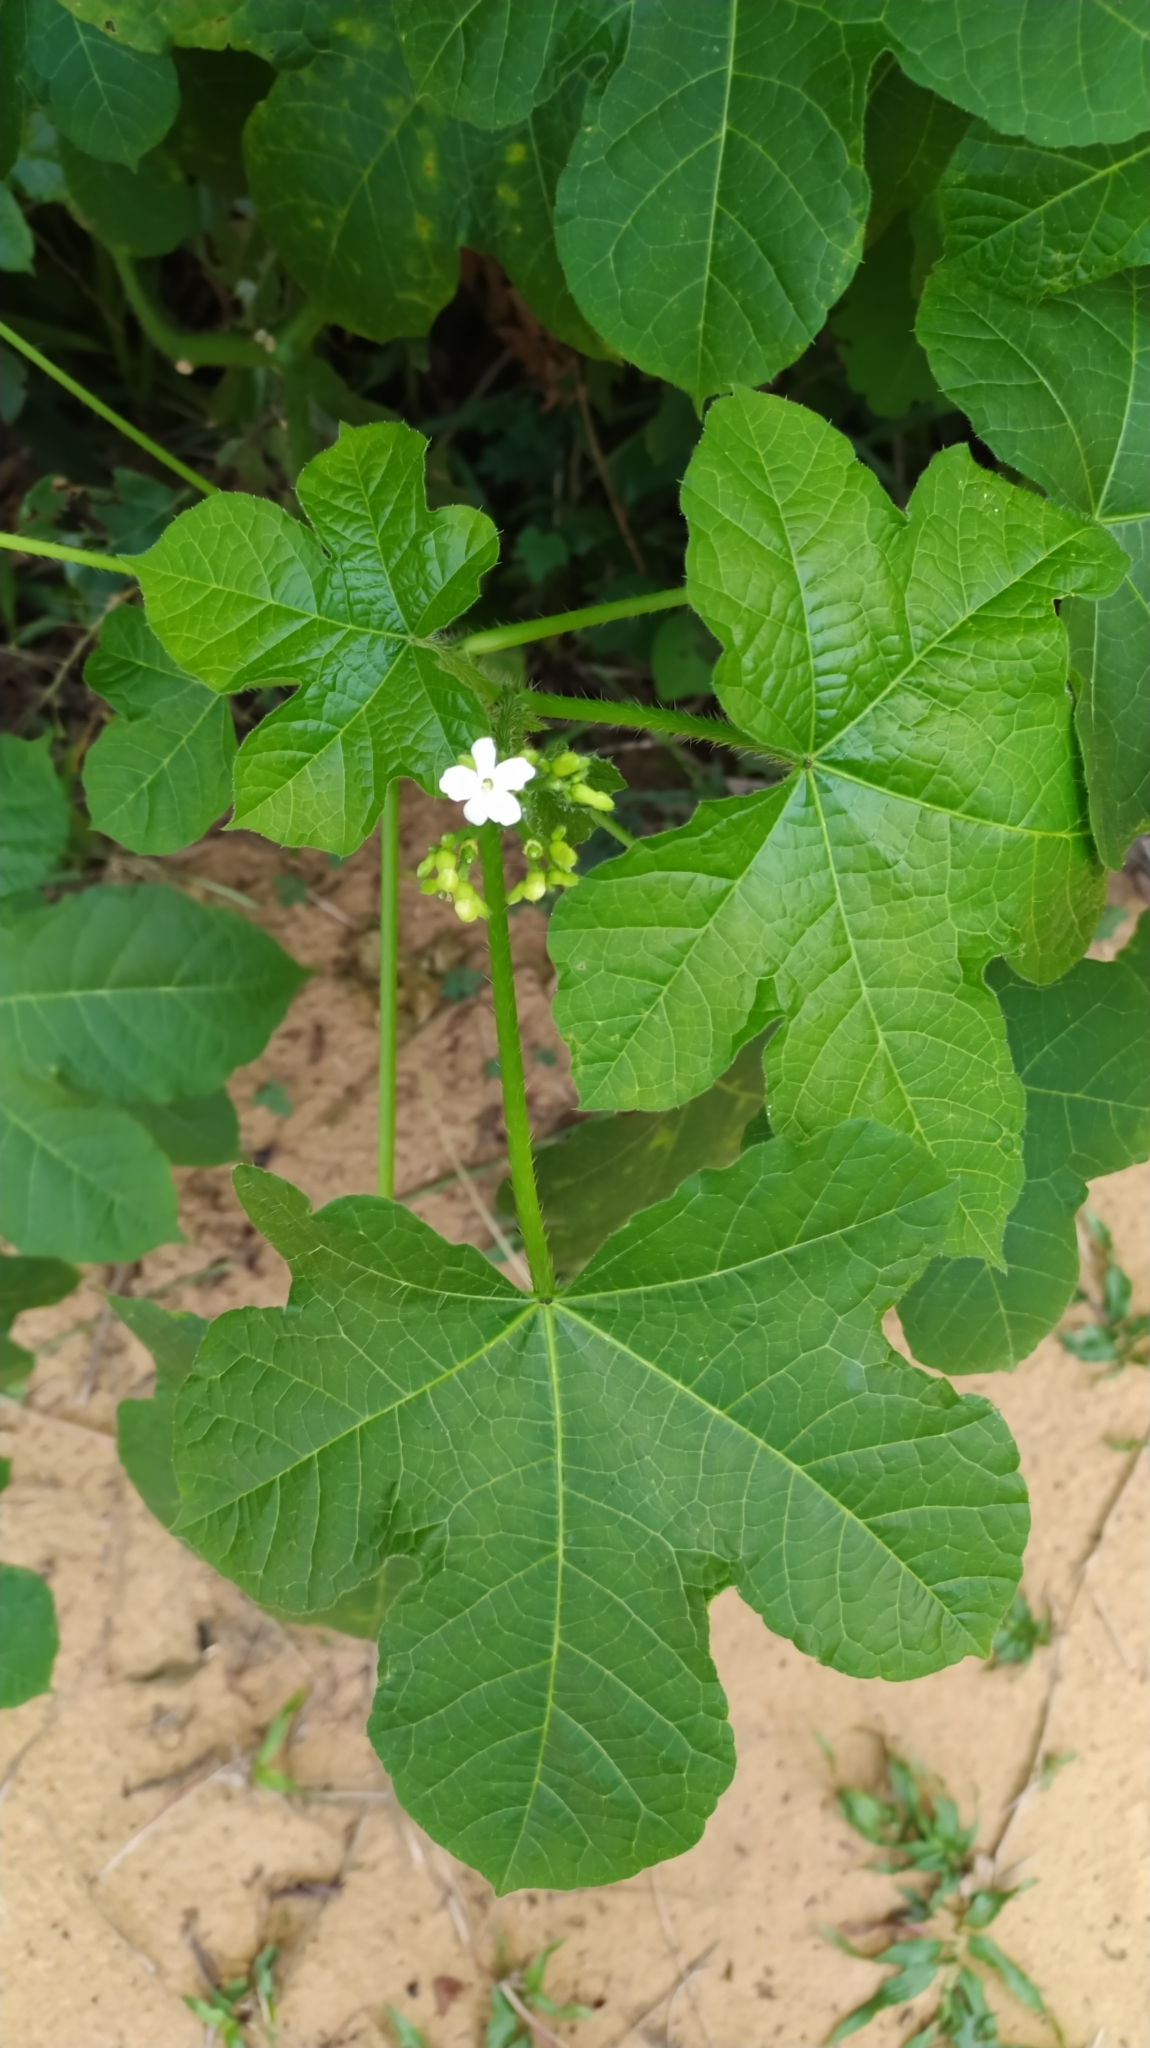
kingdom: Plantae
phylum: Tracheophyta
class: Magnoliopsida
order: Malpighiales
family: Euphorbiaceae
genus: Cnidoscolus
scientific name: Cnidoscolus urens
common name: Bull-nettle
